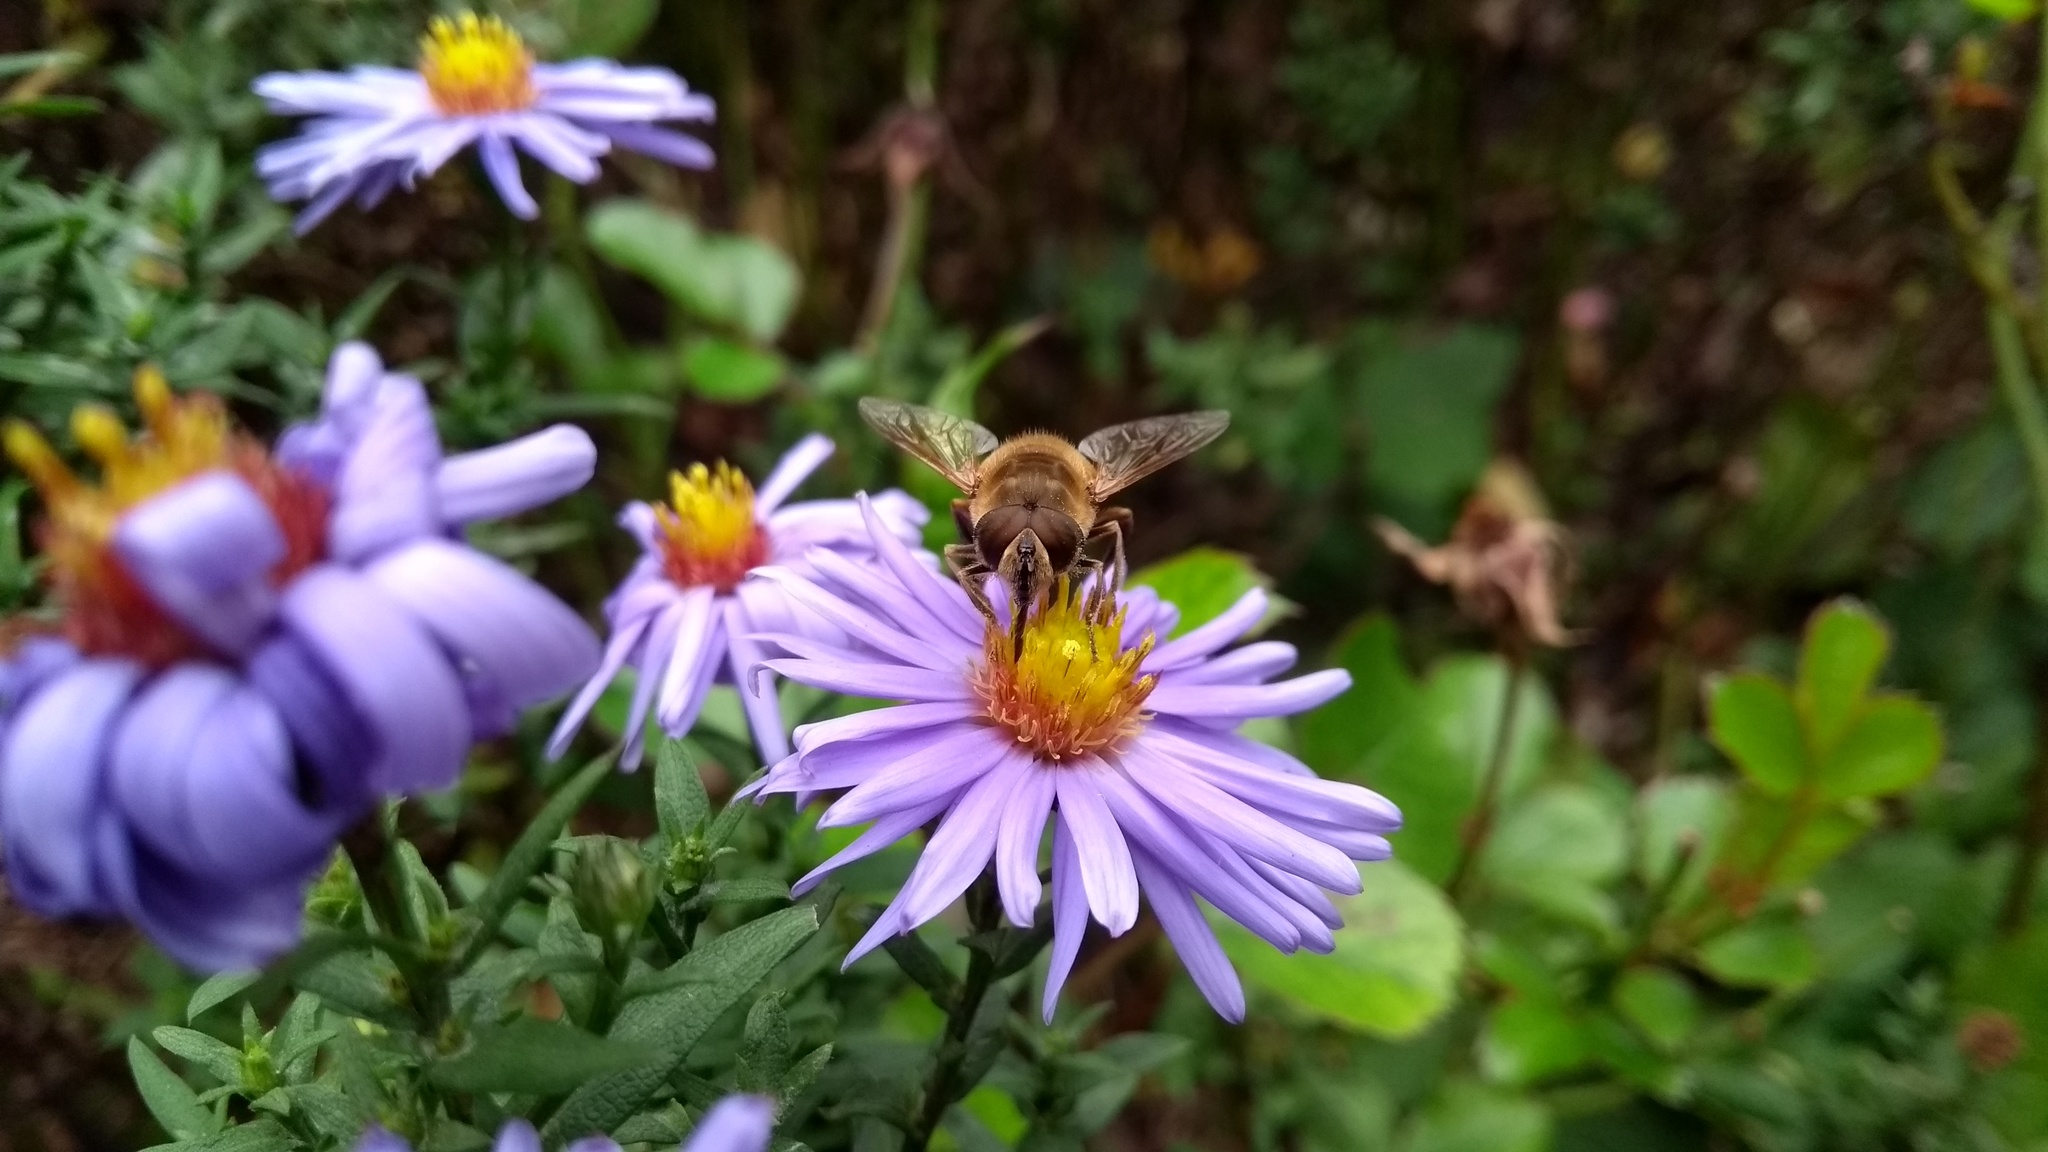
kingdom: Animalia
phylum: Arthropoda
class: Insecta
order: Diptera
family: Syrphidae
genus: Eristalis
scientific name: Eristalis tenax
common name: Drone fly
